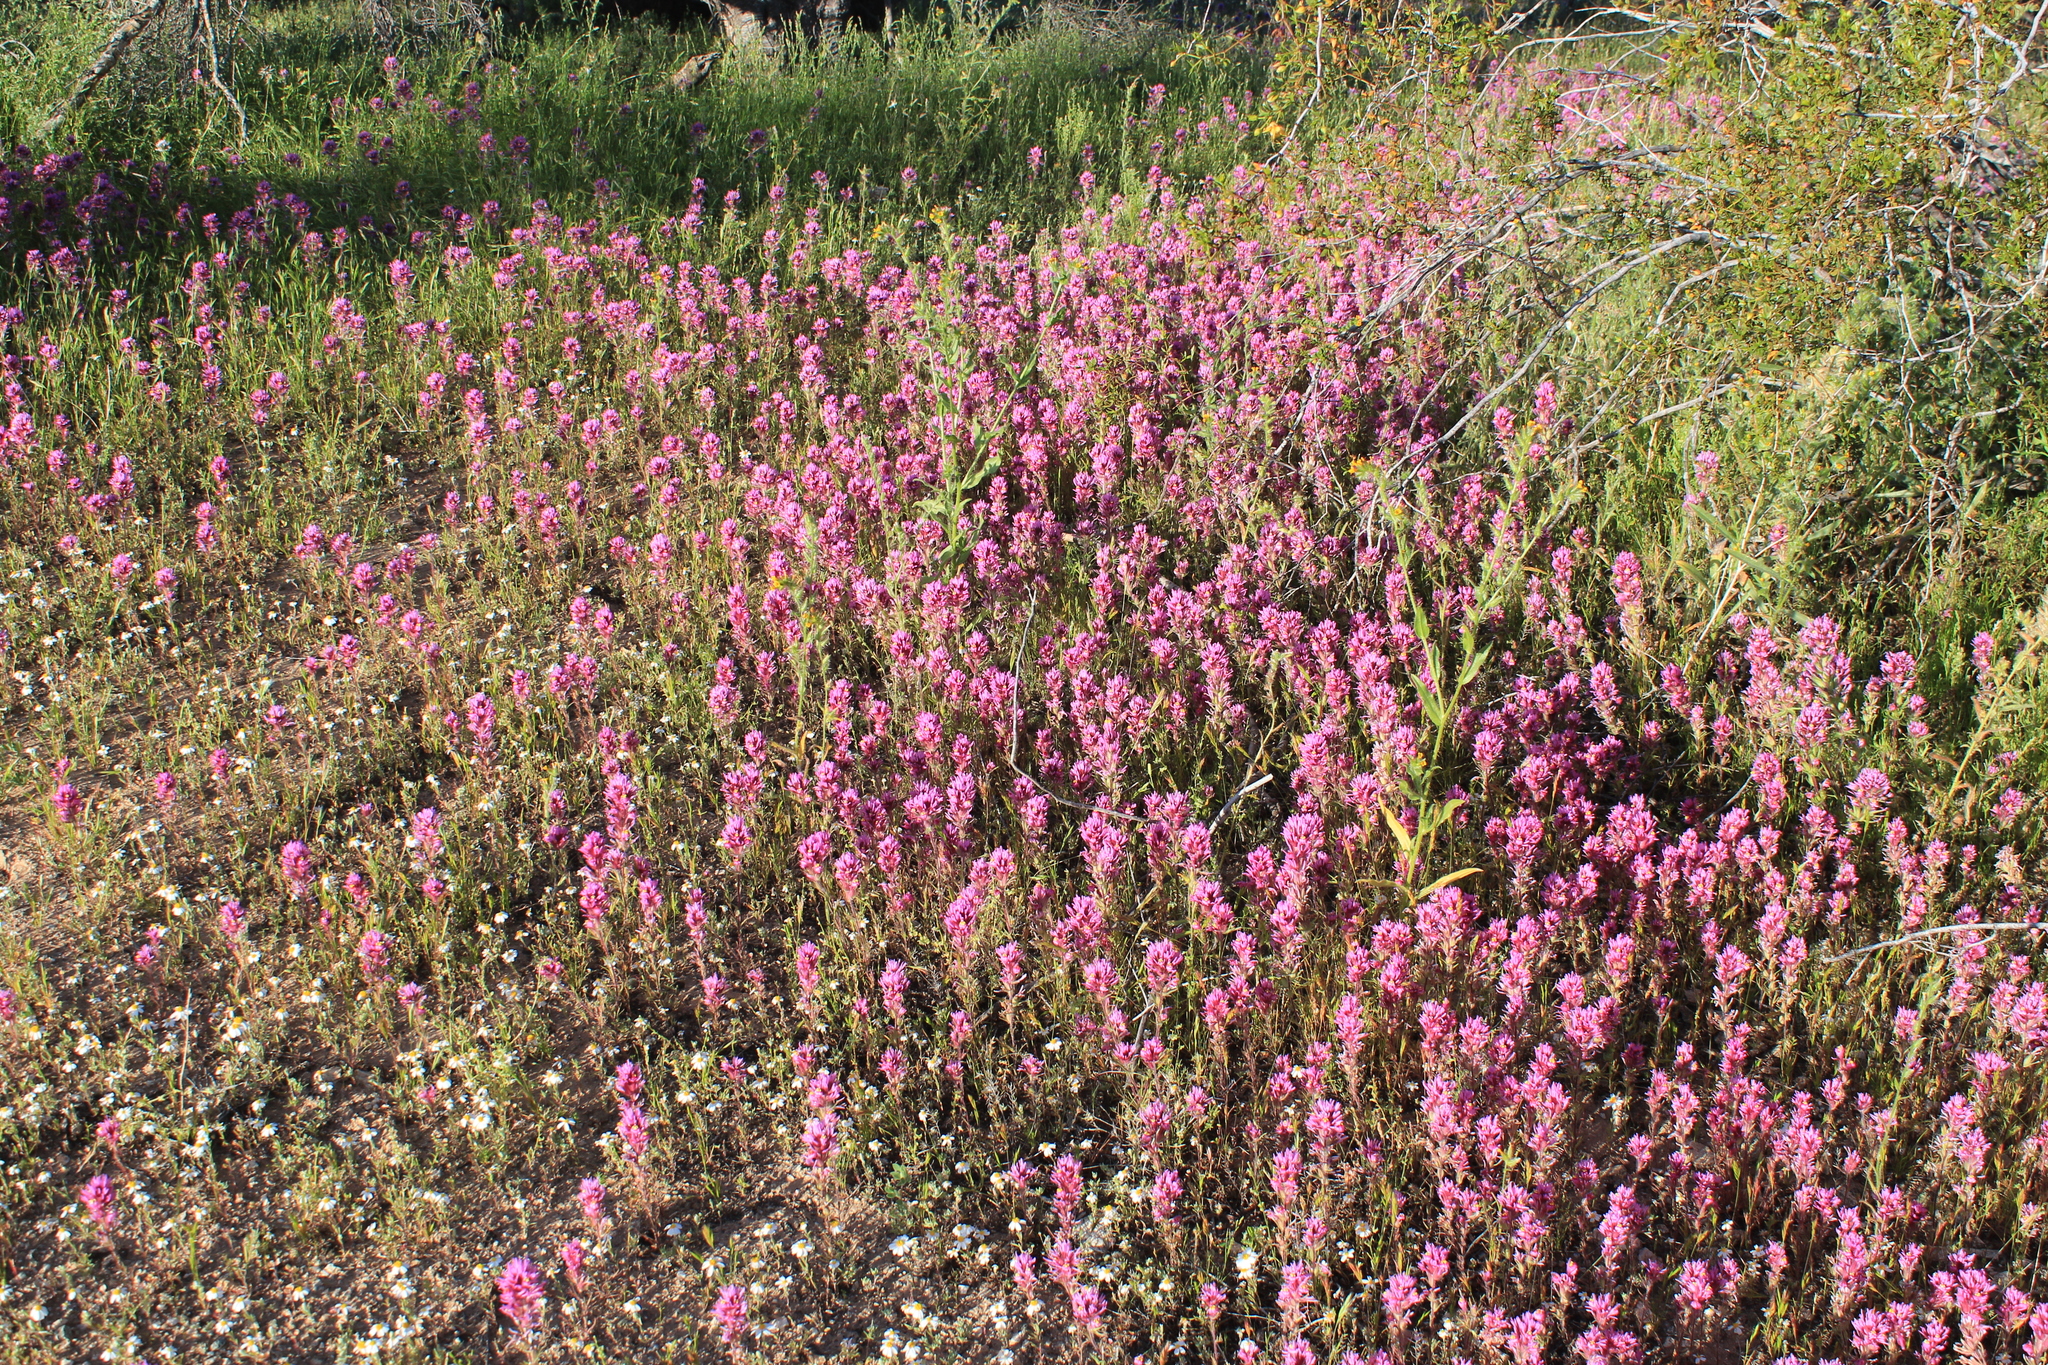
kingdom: Plantae
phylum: Tracheophyta
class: Magnoliopsida
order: Lamiales
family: Orobanchaceae
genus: Castilleja
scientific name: Castilleja exserta
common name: Purple owl-clover
